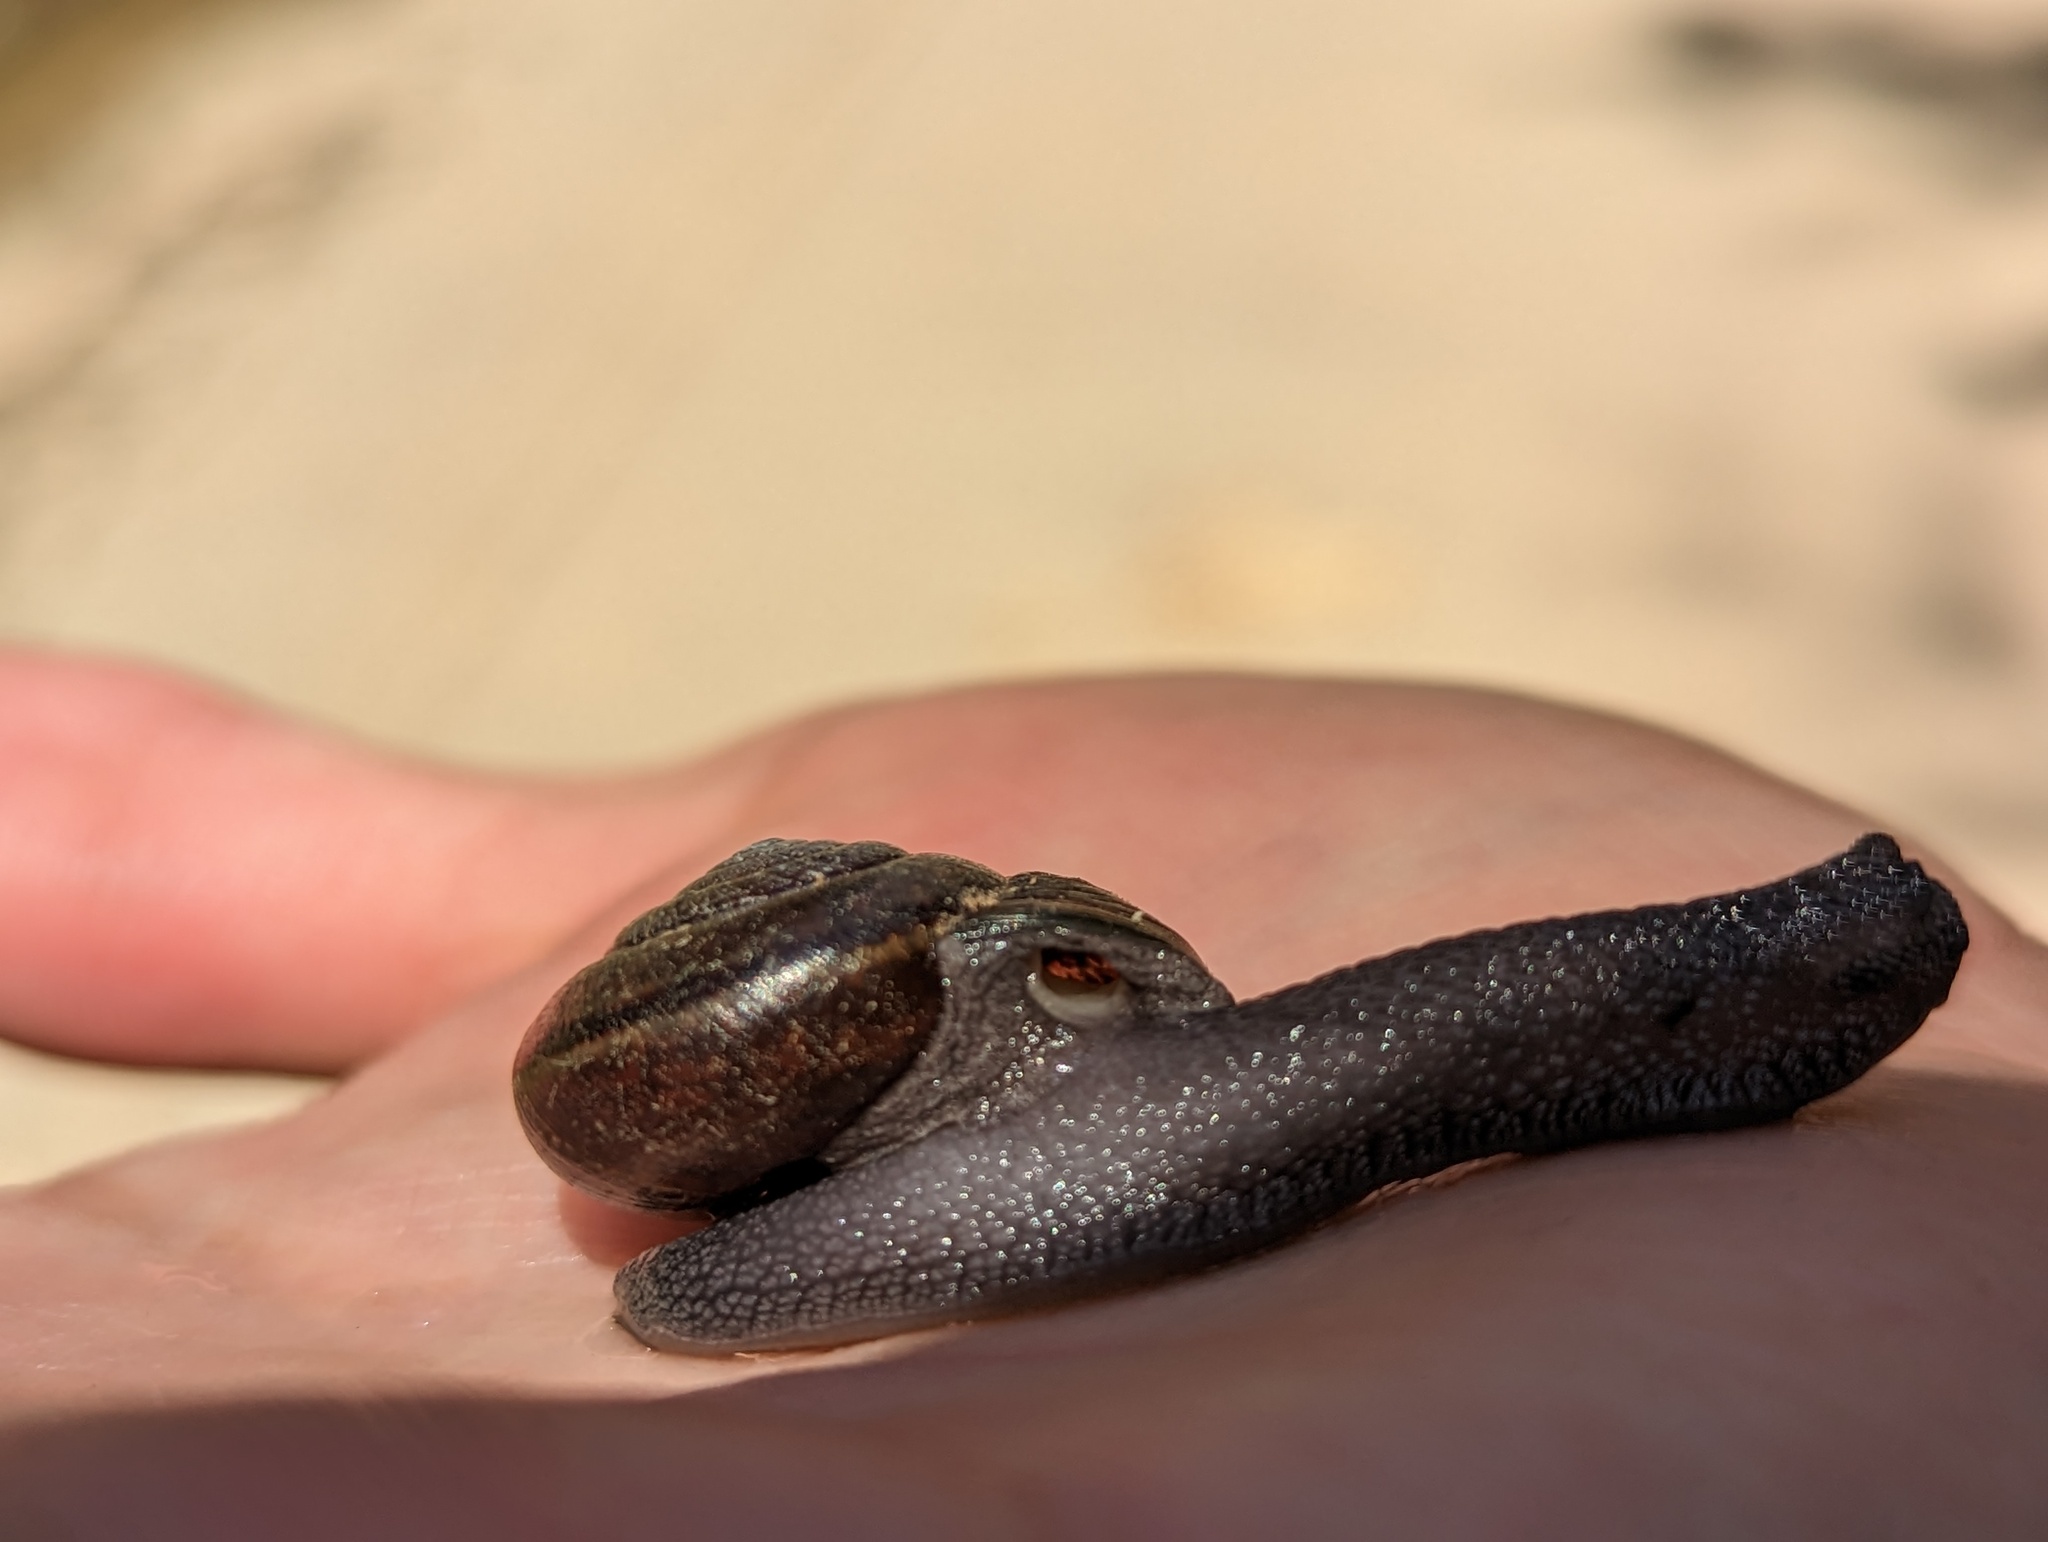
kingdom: Animalia
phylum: Mollusca
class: Gastropoda
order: Stylommatophora
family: Xanthonychidae
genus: Helminthoglypta
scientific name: Helminthoglypta umbilicata
